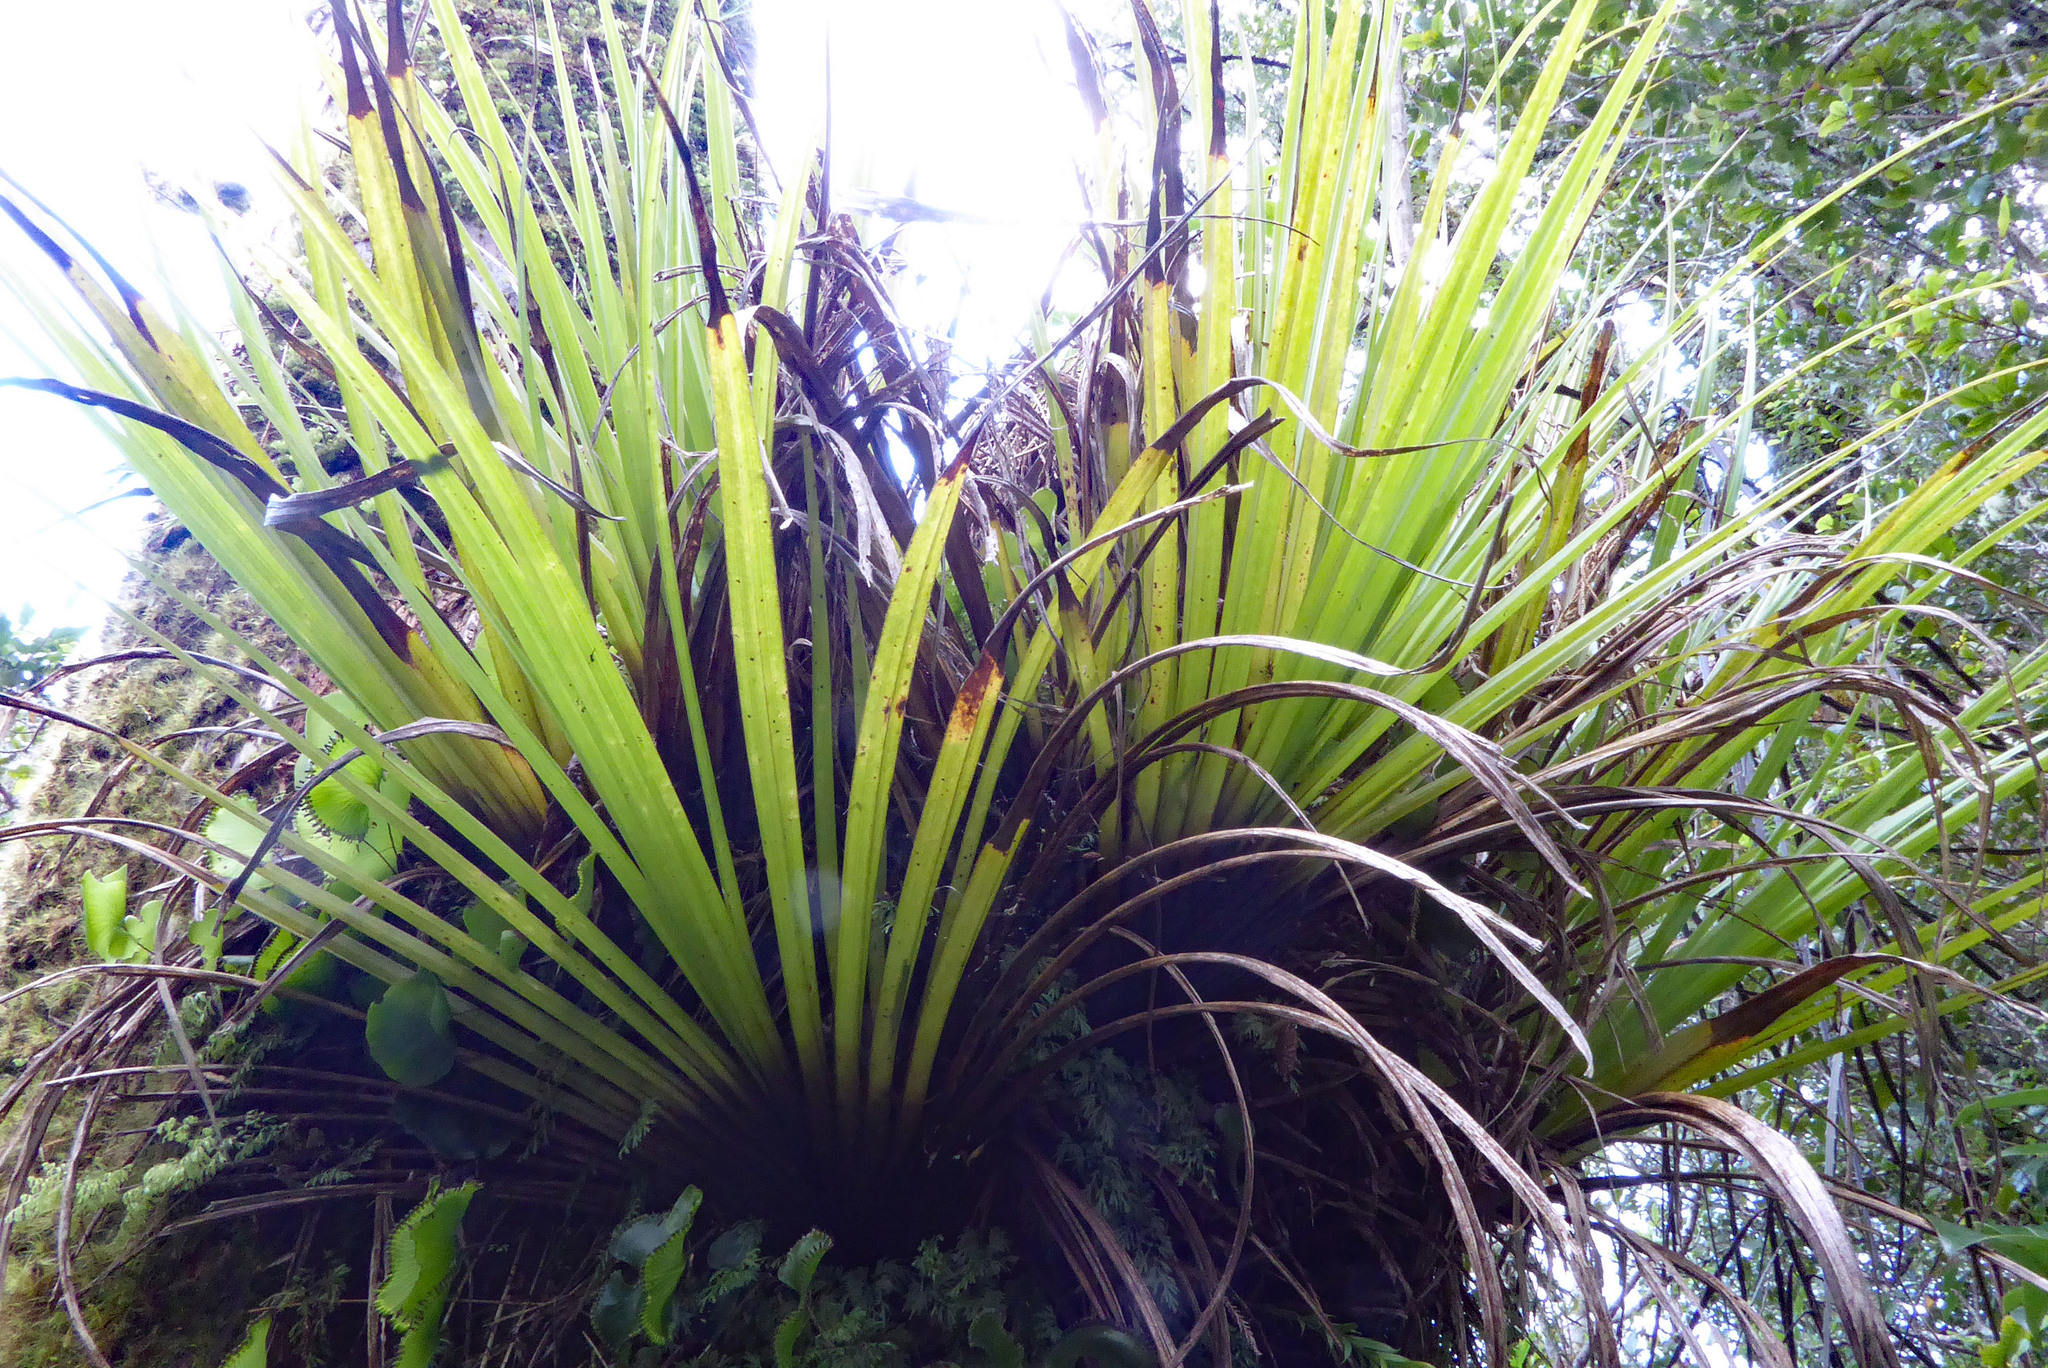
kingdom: Plantae
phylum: Tracheophyta
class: Liliopsida
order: Asparagales
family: Asteliaceae
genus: Astelia
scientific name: Astelia microsperma
